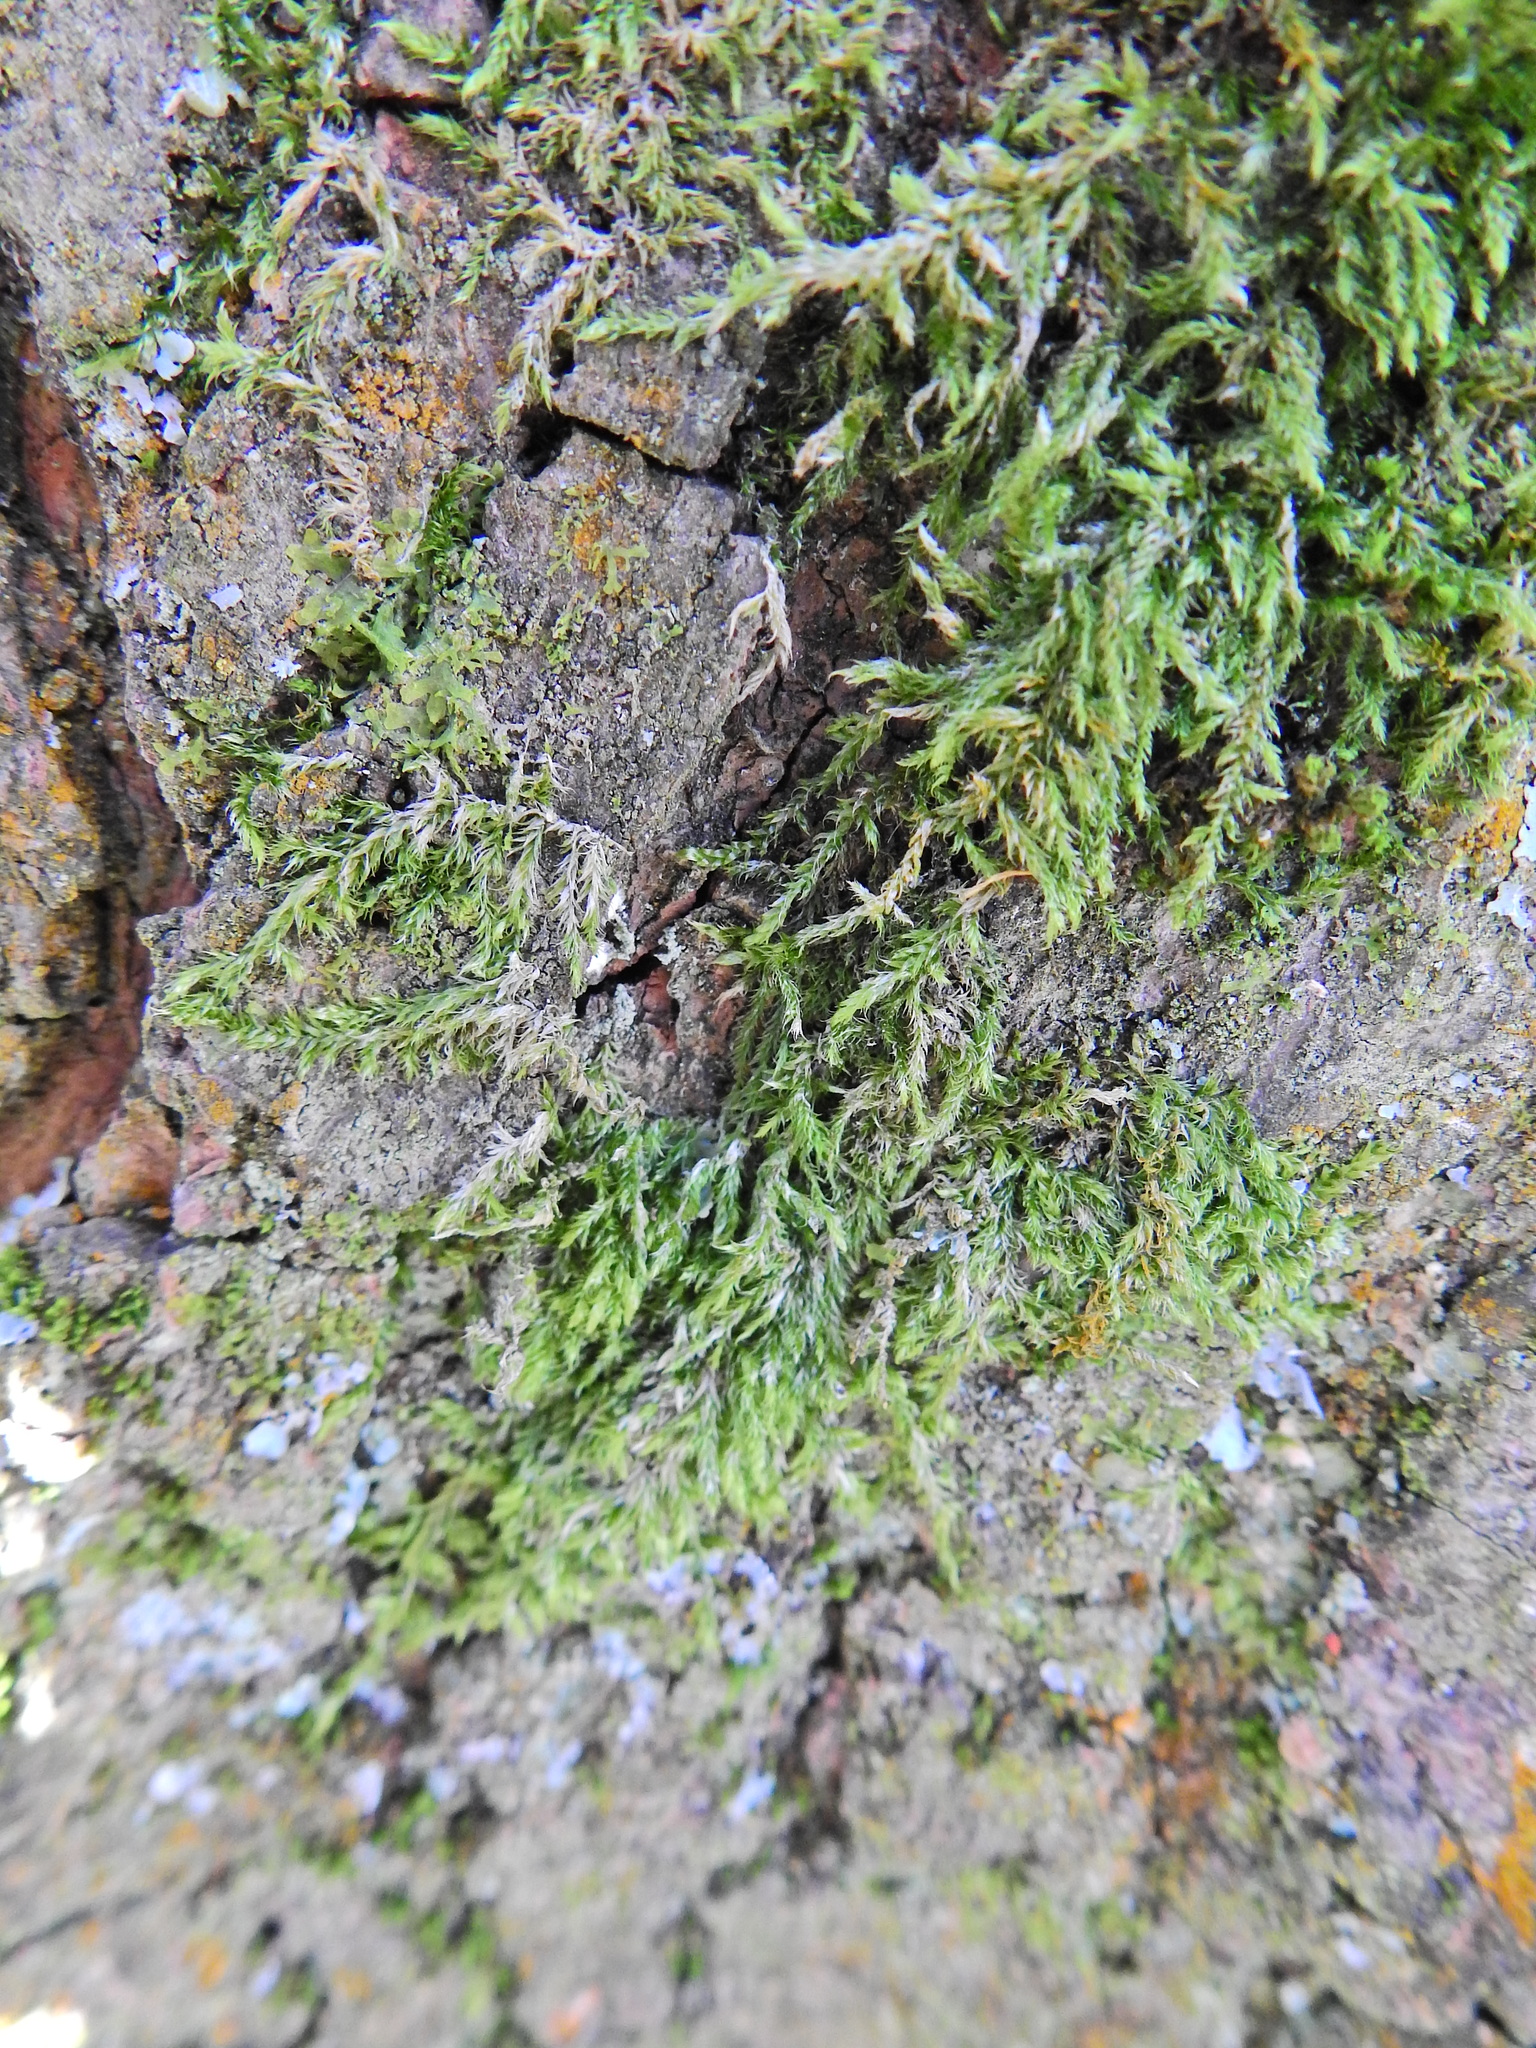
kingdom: Plantae
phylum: Bryophyta
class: Bryopsida
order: Hypnales
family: Hypnaceae
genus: Hypnum
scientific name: Hypnum cupressiforme
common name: Cypress-leaved plait-moss
